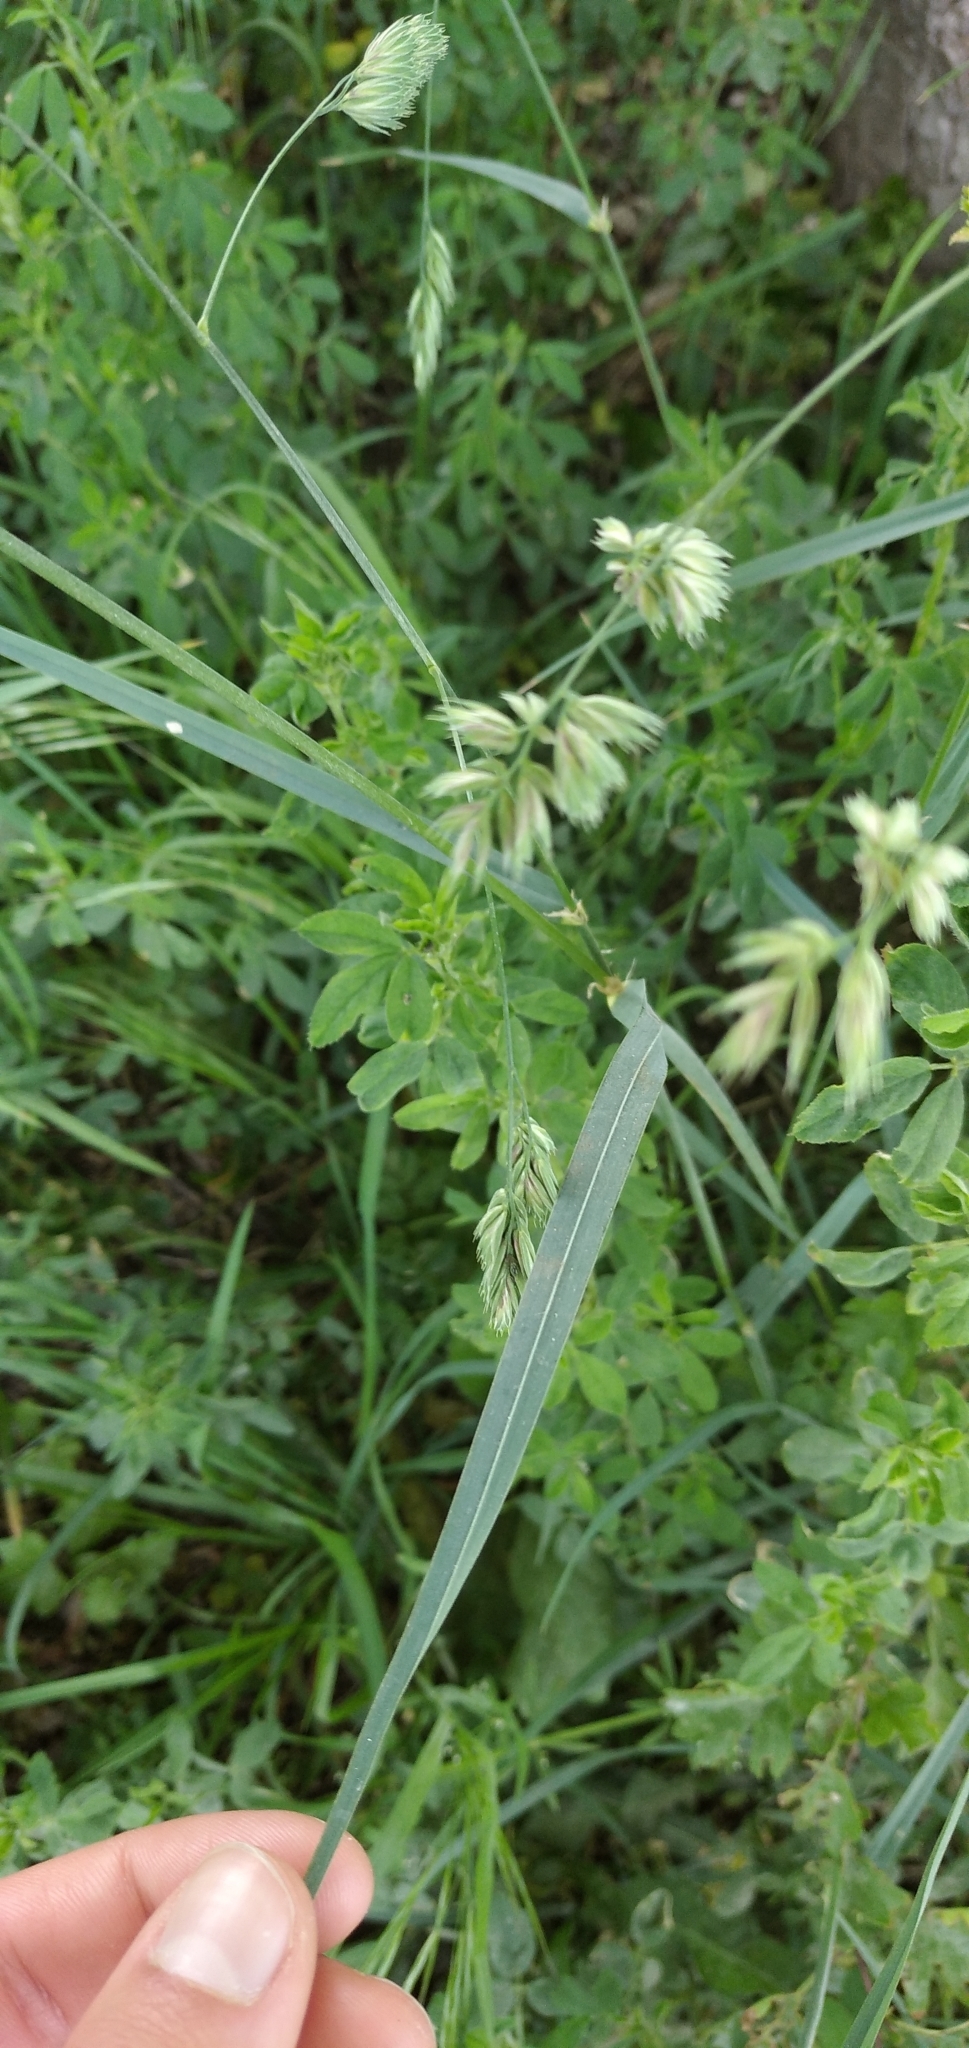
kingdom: Plantae
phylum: Tracheophyta
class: Liliopsida
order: Poales
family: Poaceae
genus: Dactylis
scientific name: Dactylis glomerata
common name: Orchardgrass
